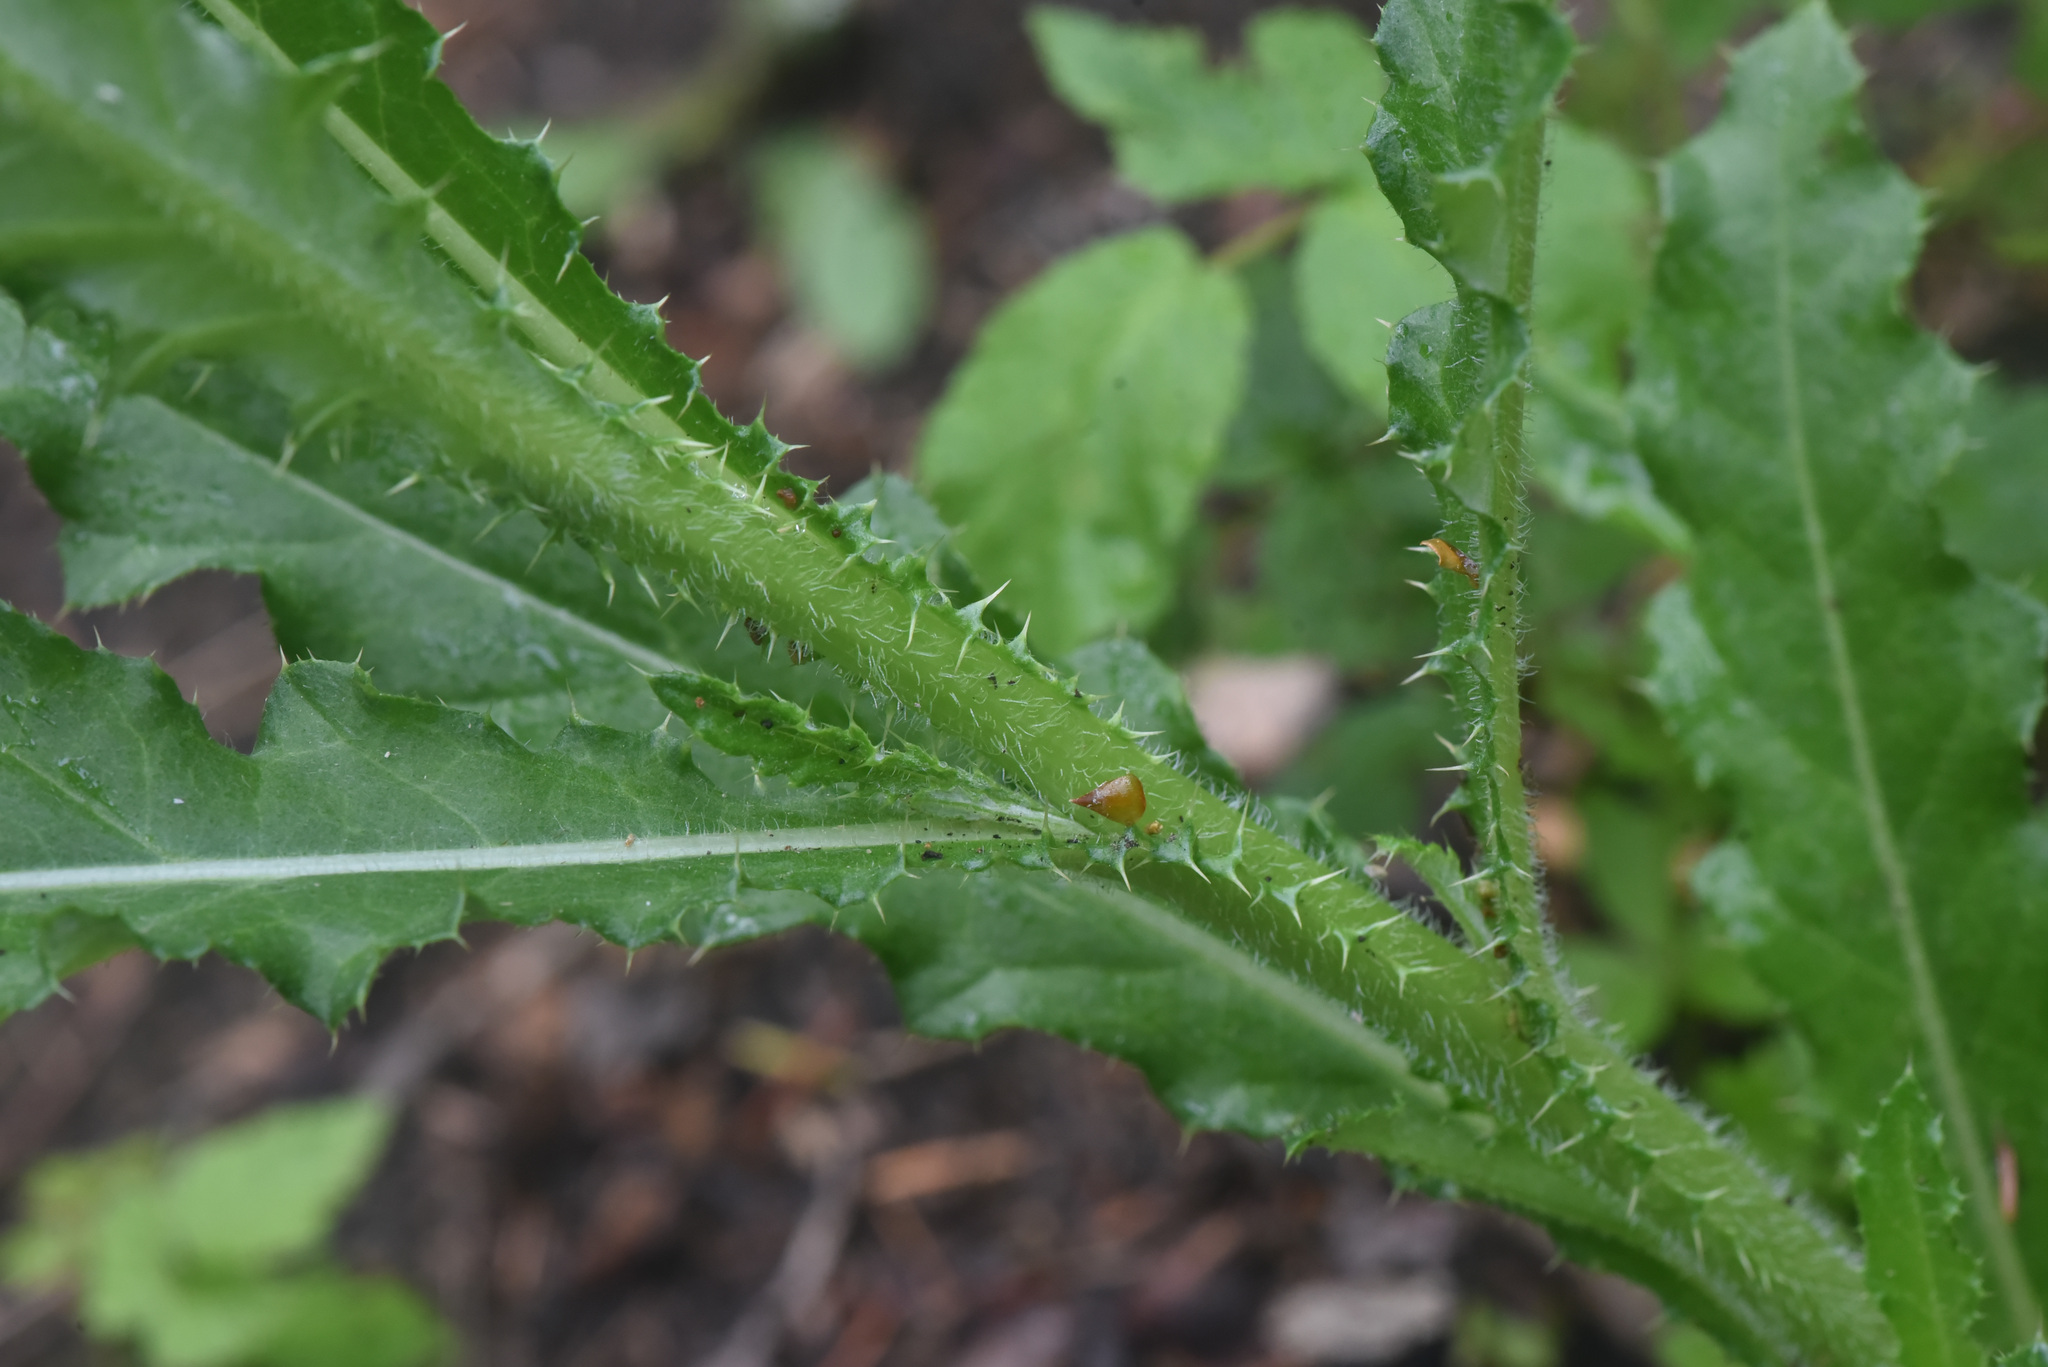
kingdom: Plantae
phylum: Tracheophyta
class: Magnoliopsida
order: Asterales
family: Asteraceae
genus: Cirsium
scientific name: Cirsium arvense
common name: Creeping thistle
